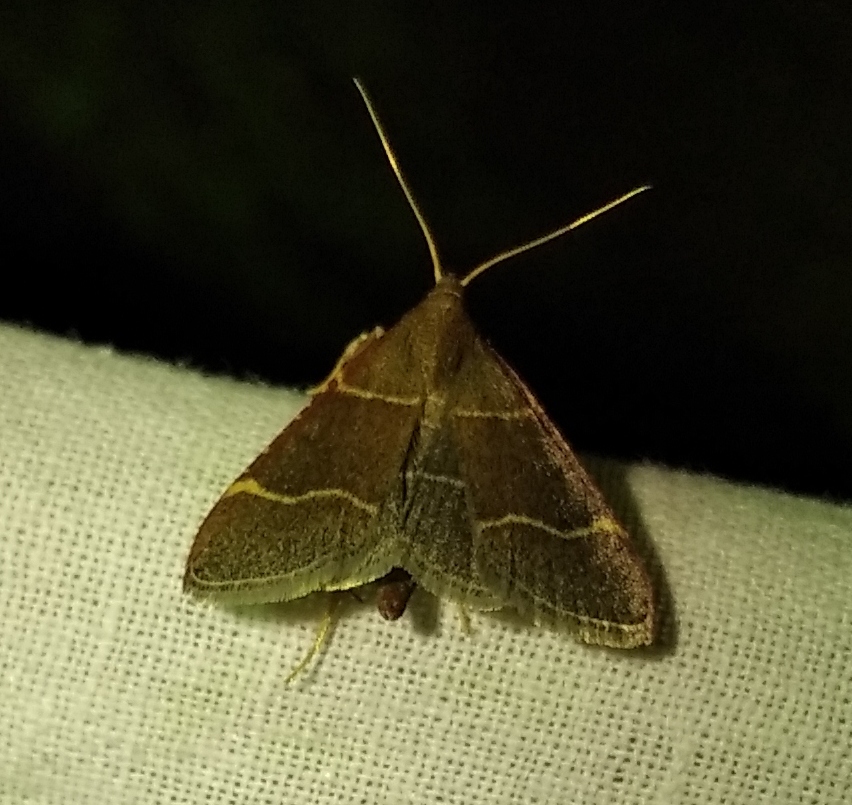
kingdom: Animalia
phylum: Arthropoda
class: Insecta
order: Lepidoptera
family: Pyralidae
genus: Hypsopygia
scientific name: Hypsopygia glaucinalis
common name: Double-striped tabby
